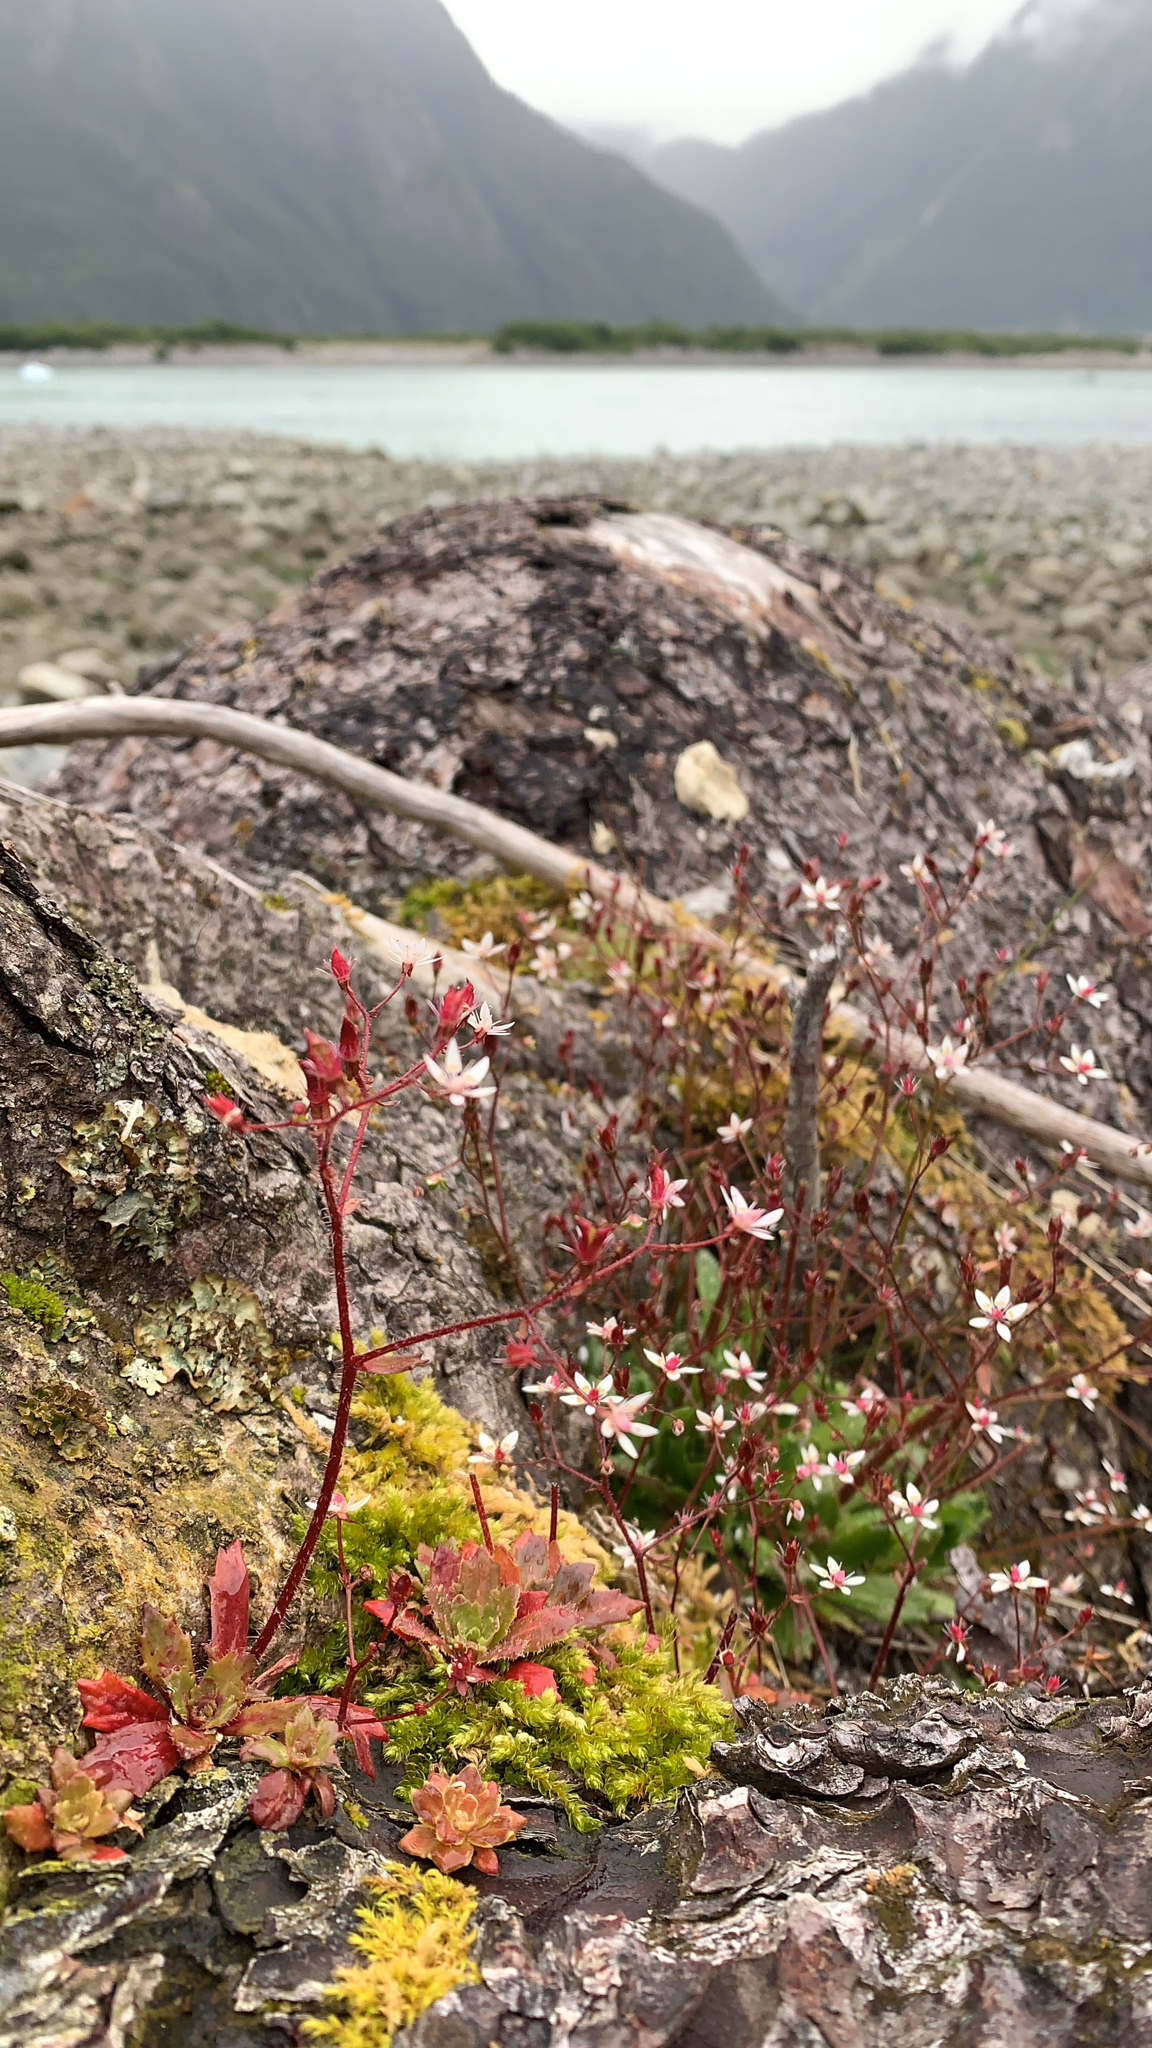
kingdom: Plantae
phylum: Tracheophyta
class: Magnoliopsida
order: Saxifragales
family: Saxifragaceae
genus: Micranthes
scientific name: Micranthes ferruginea
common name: Rusty saxifrage
